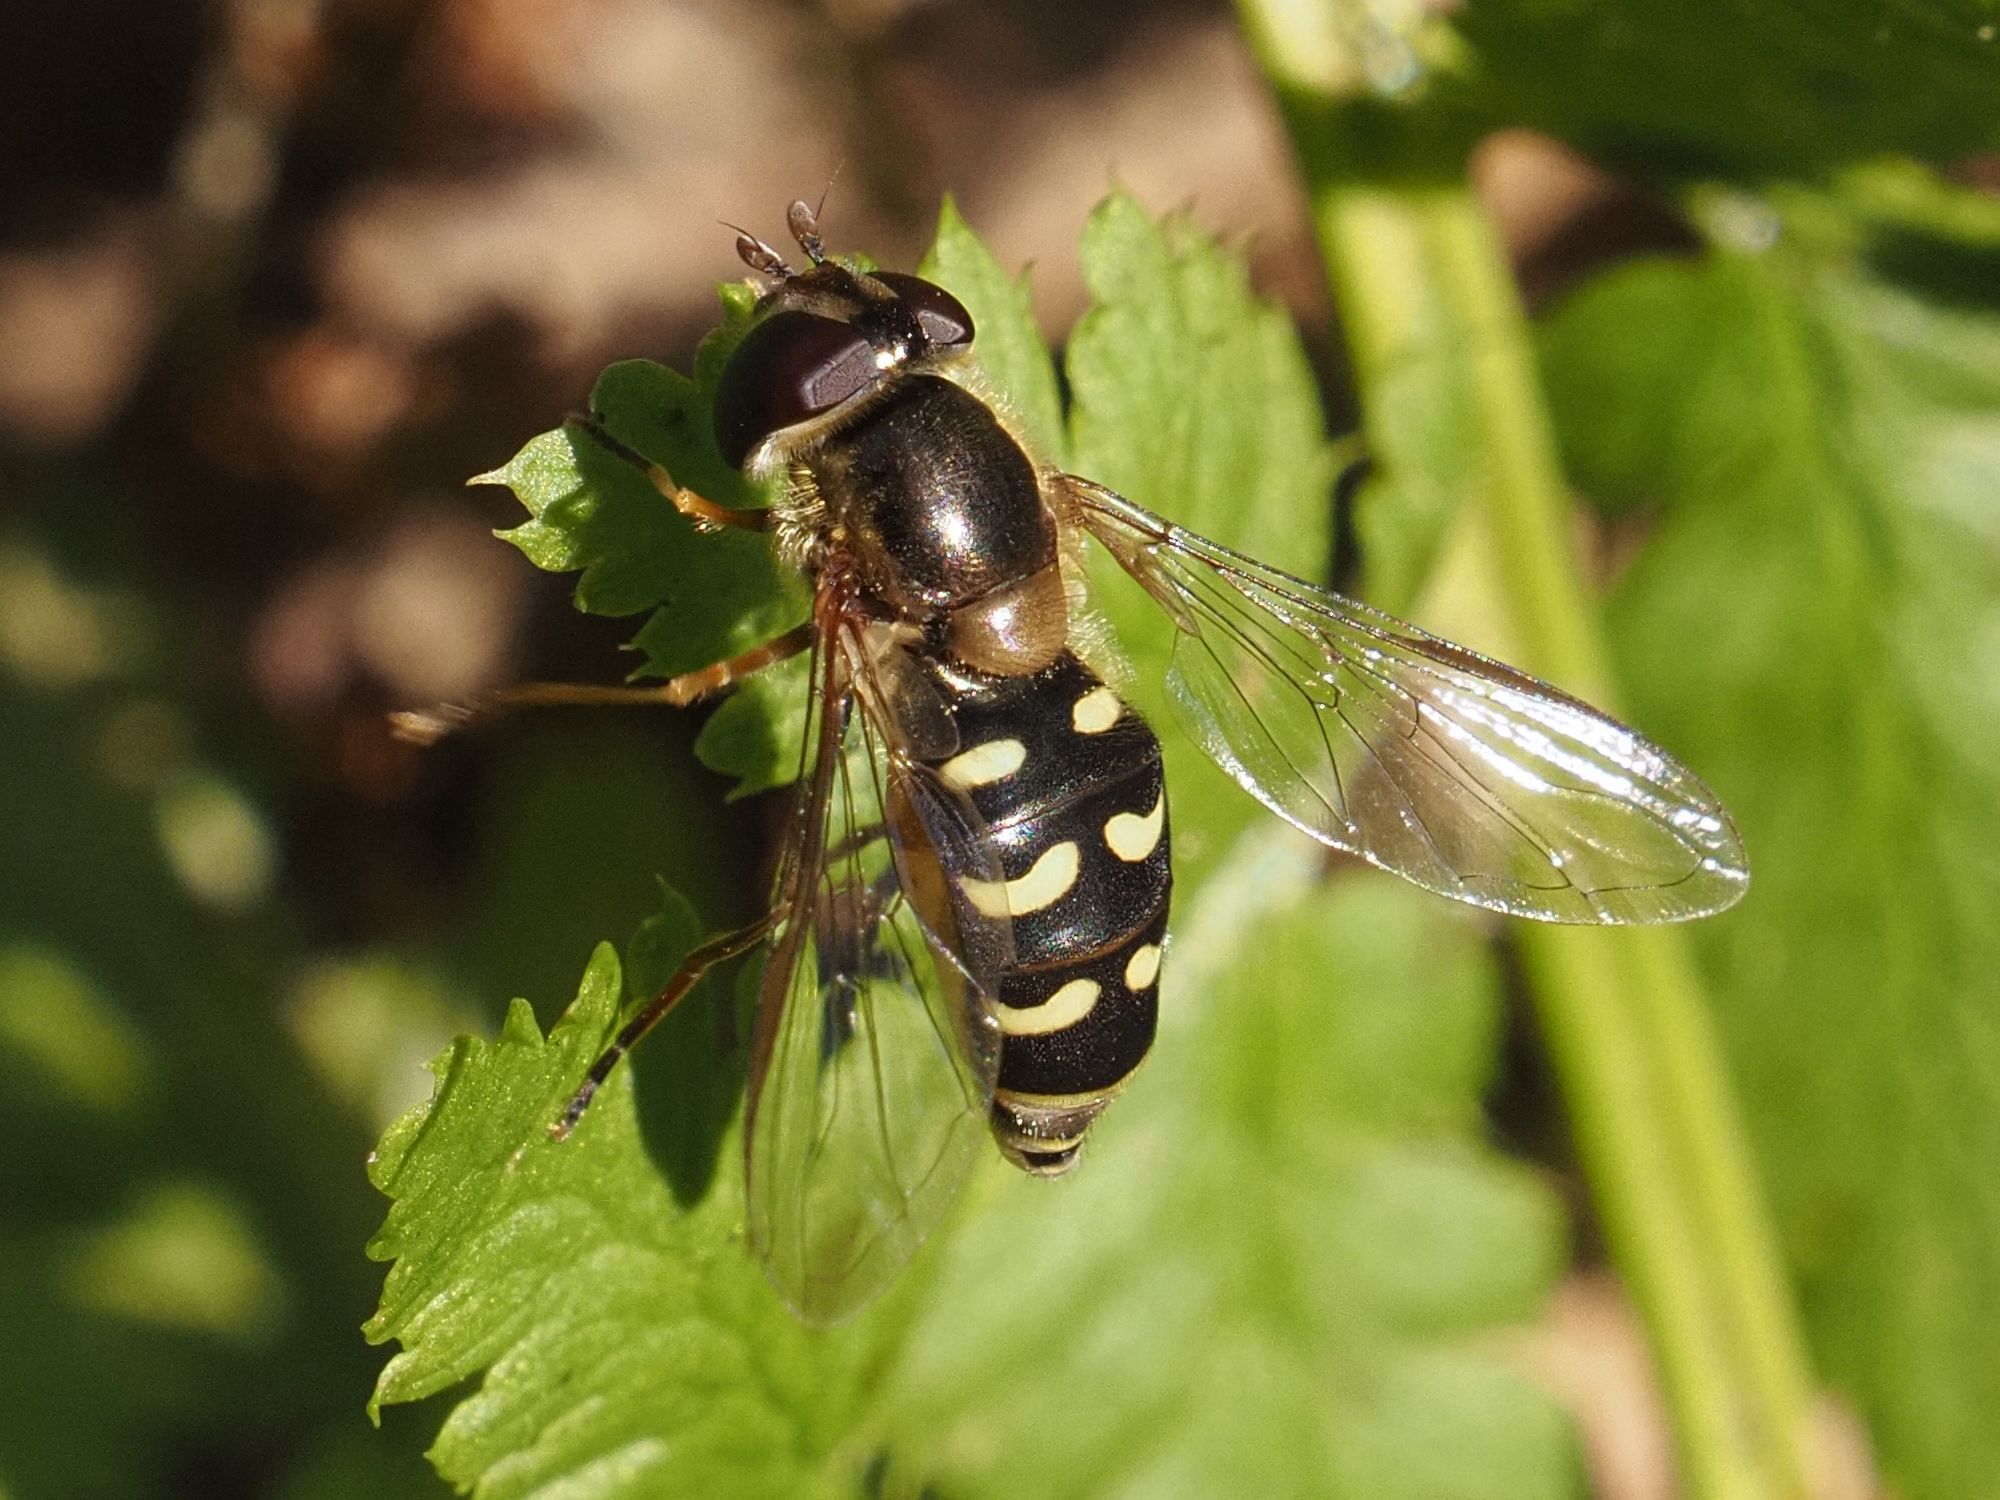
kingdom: Animalia
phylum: Arthropoda
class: Insecta
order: Diptera
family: Syrphidae
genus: Lapposyrphus
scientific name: Lapposyrphus lapponicus
